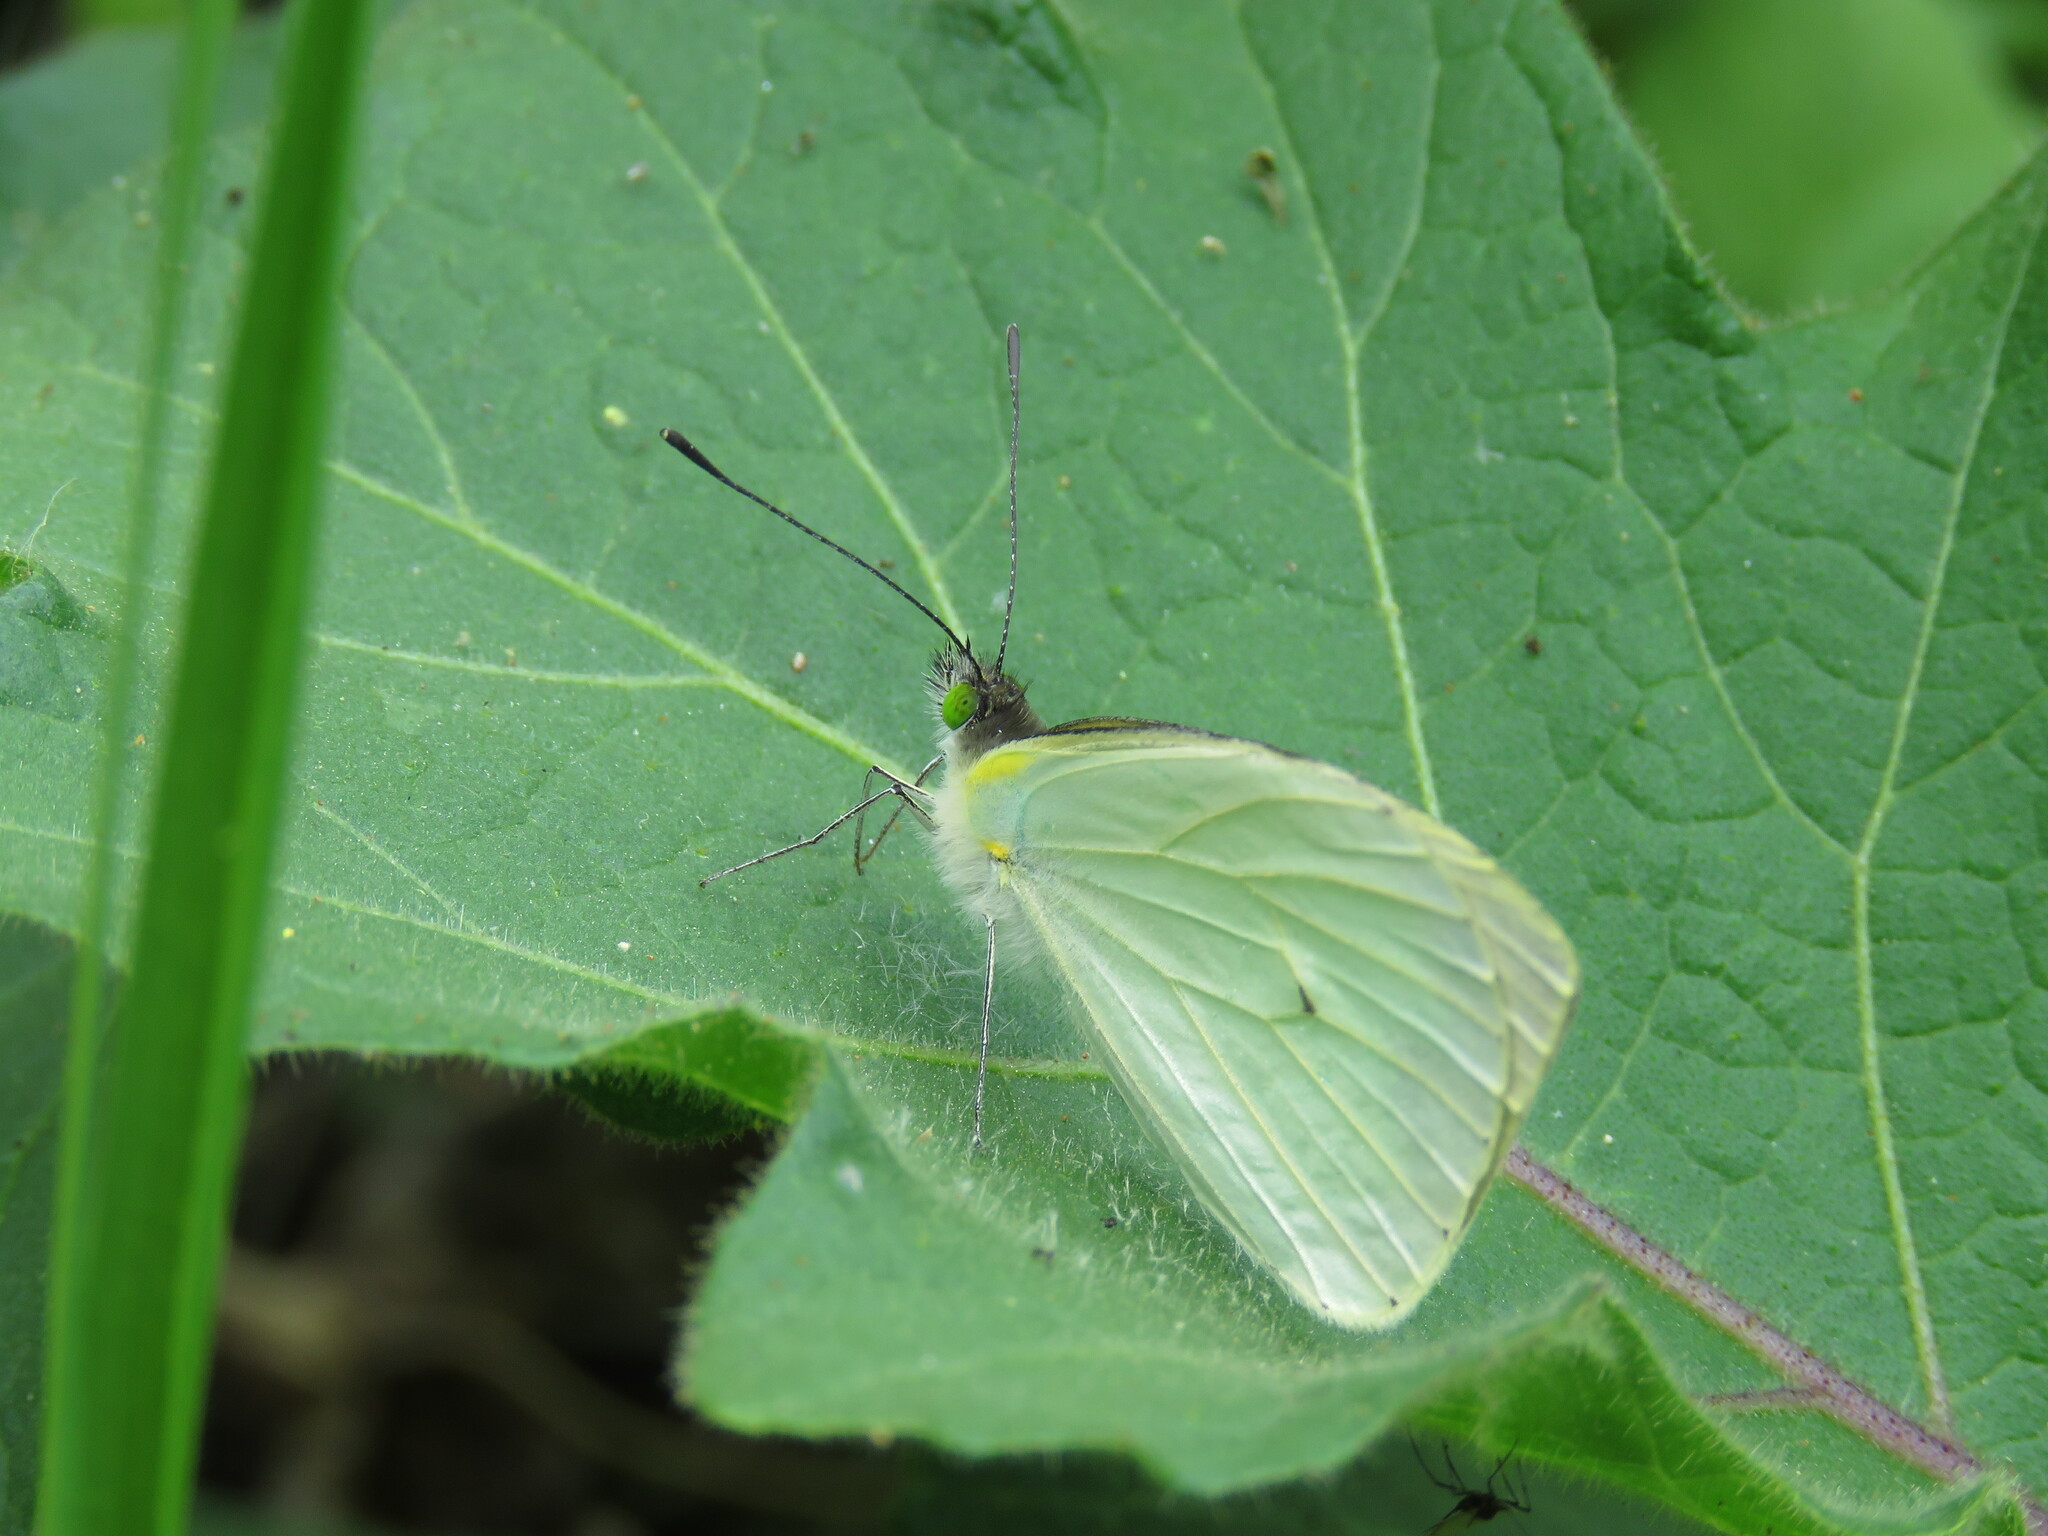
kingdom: Animalia
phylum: Arthropoda
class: Insecta
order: Lepidoptera
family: Pieridae
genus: Leptophobia
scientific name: Leptophobia aripa
